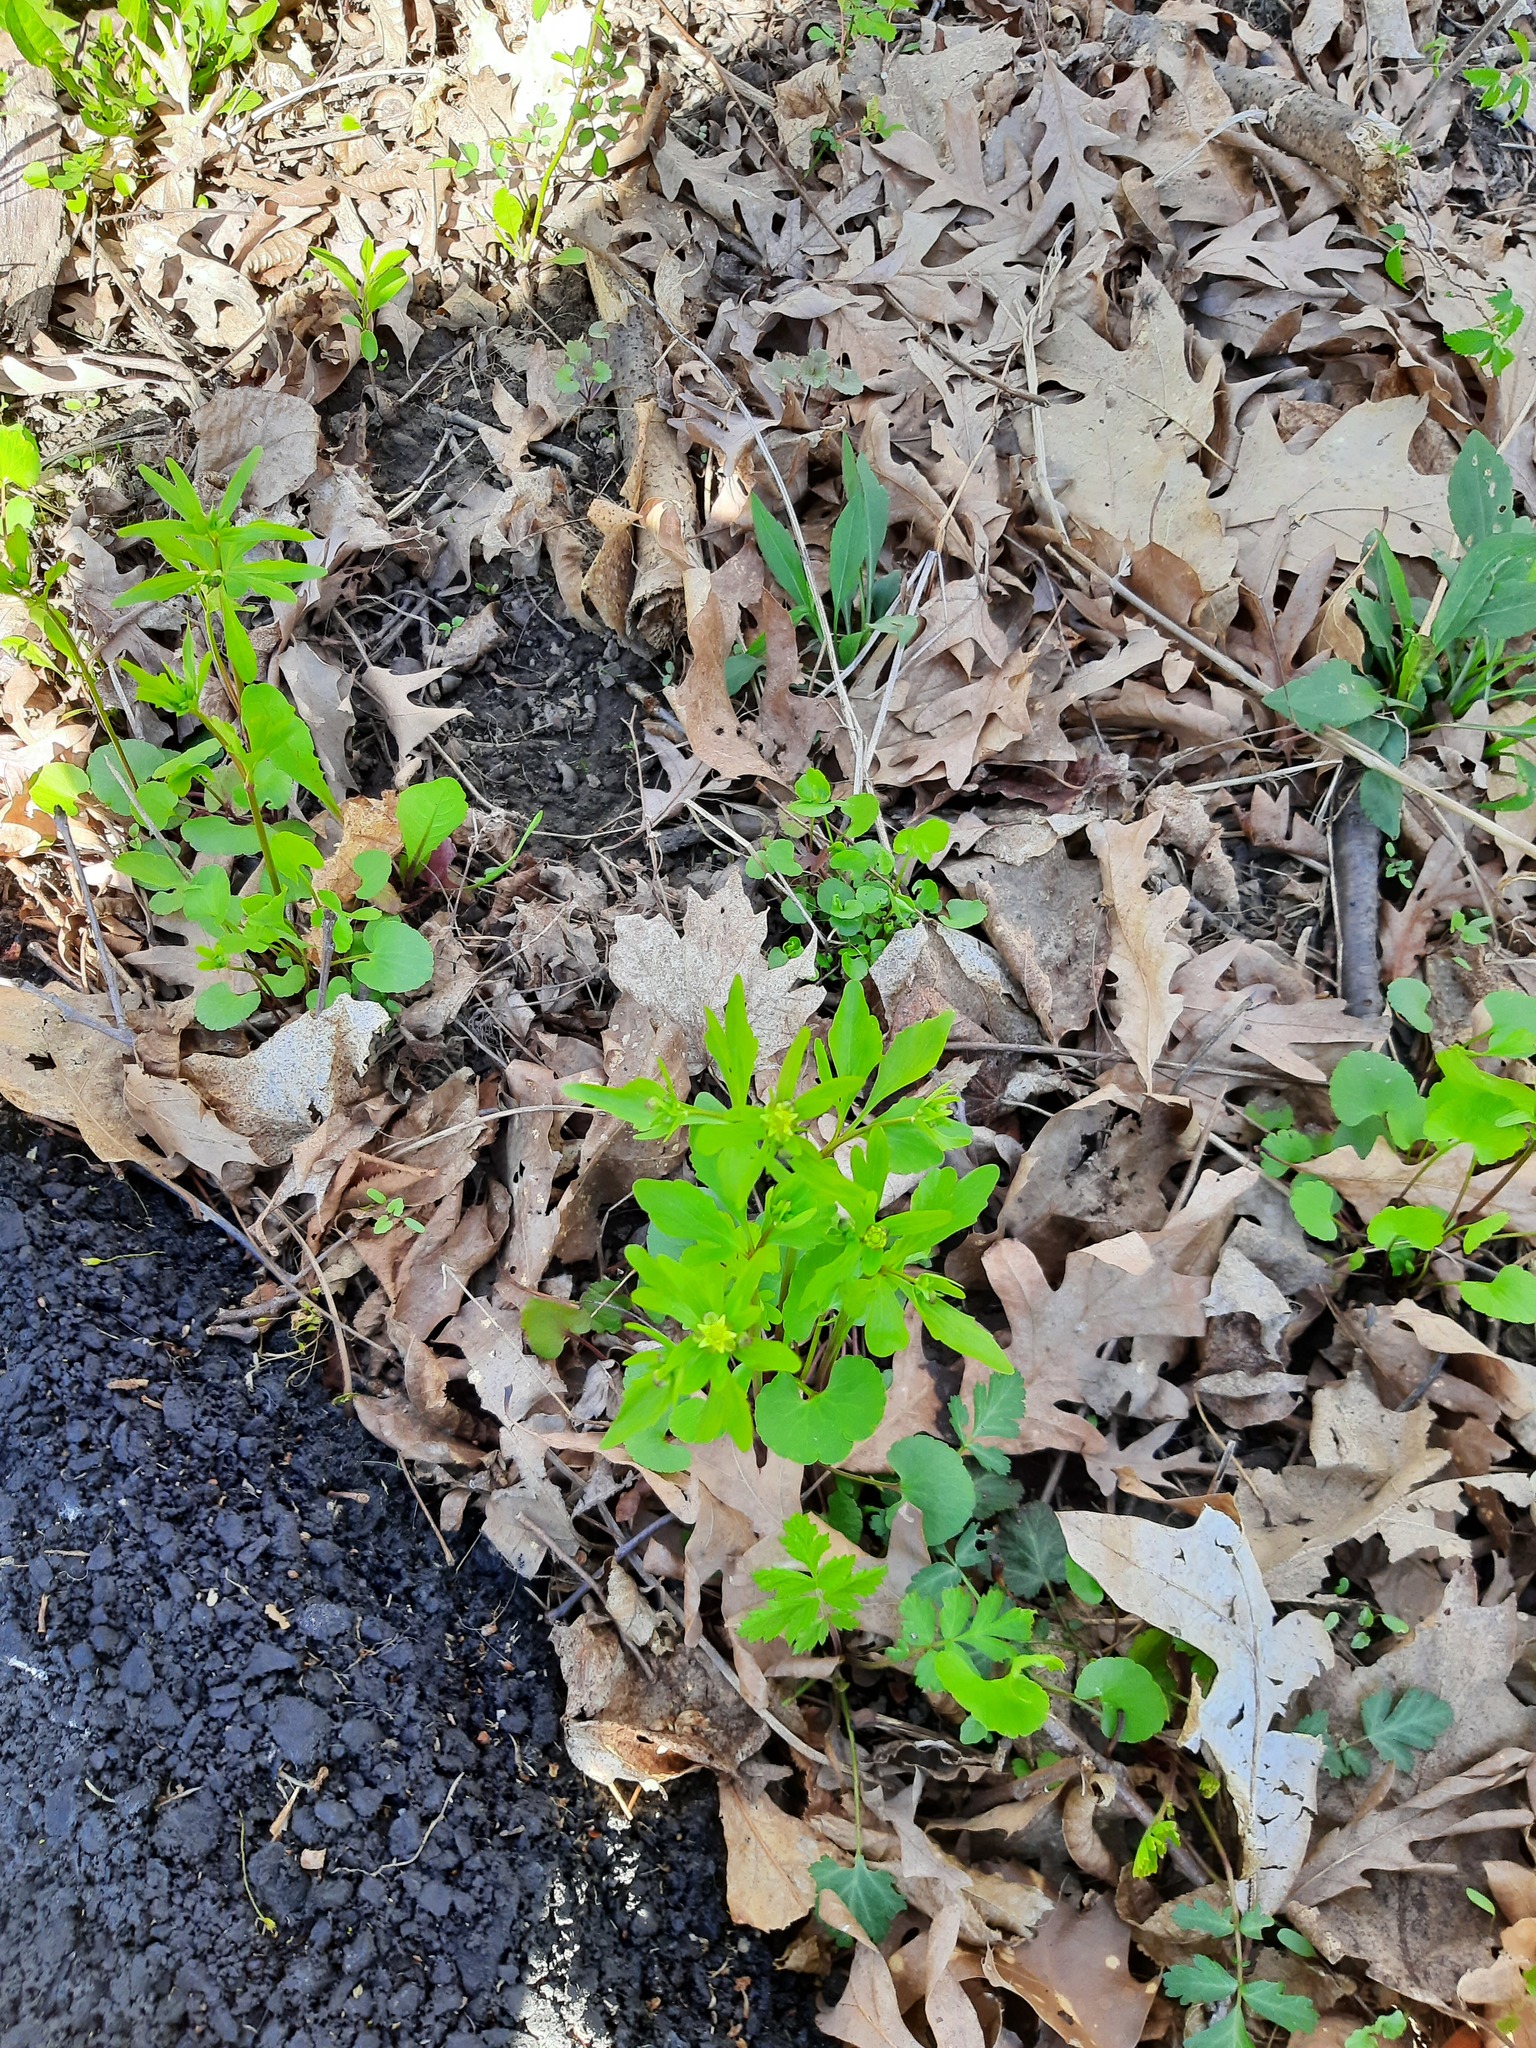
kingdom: Plantae
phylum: Tracheophyta
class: Magnoliopsida
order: Ranunculales
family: Ranunculaceae
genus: Ranunculus
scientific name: Ranunculus abortivus
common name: Early wood buttercup
